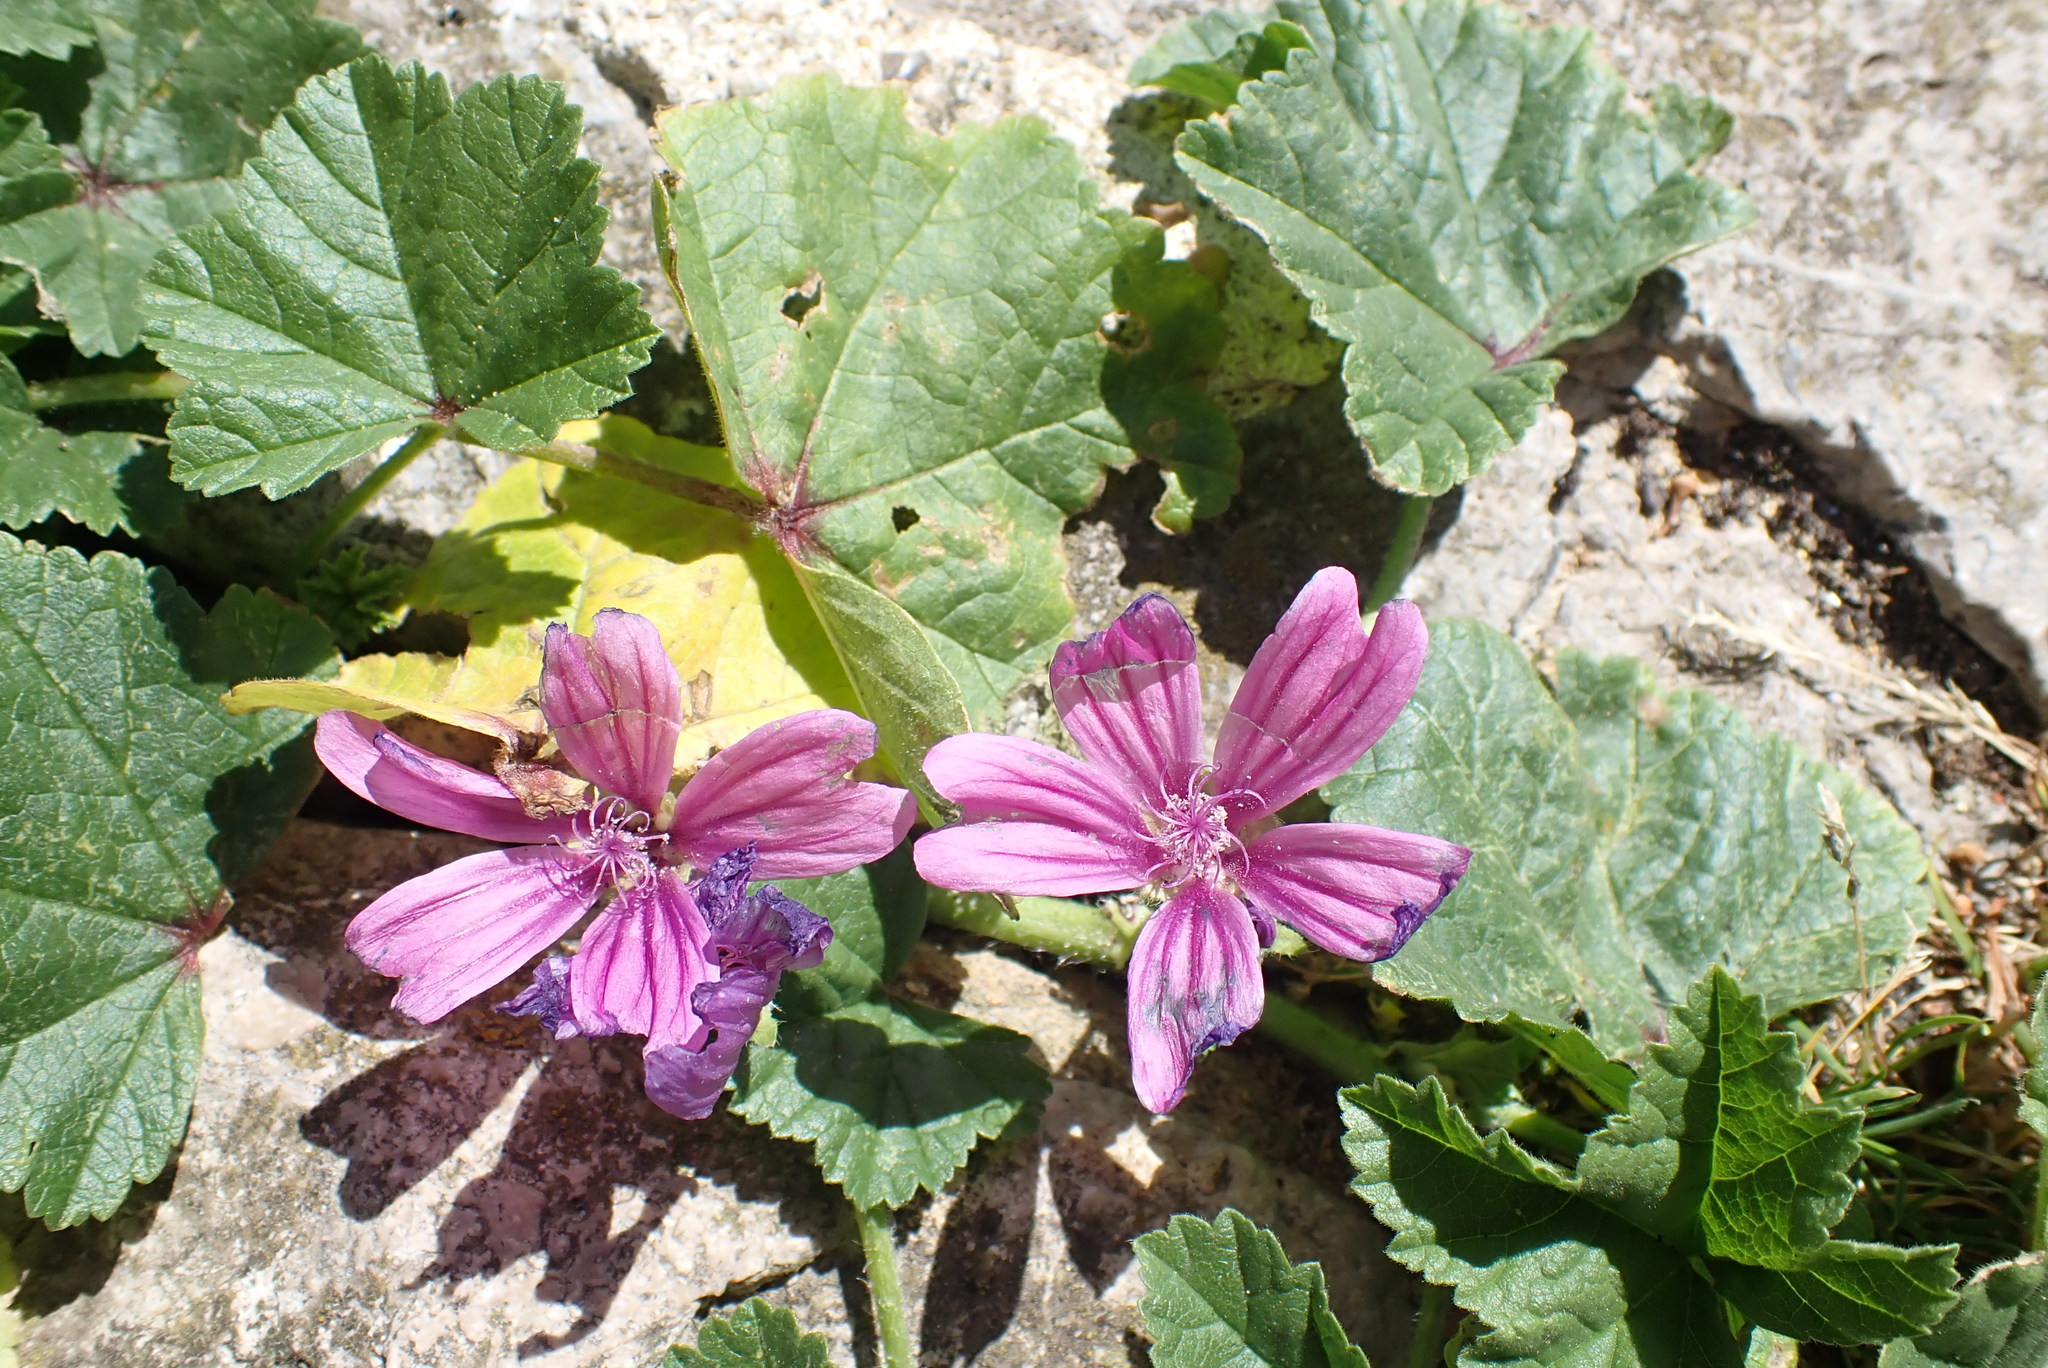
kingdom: Plantae
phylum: Tracheophyta
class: Magnoliopsida
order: Malvales
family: Malvaceae
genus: Malva
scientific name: Malva sylvestris
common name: Common mallow
